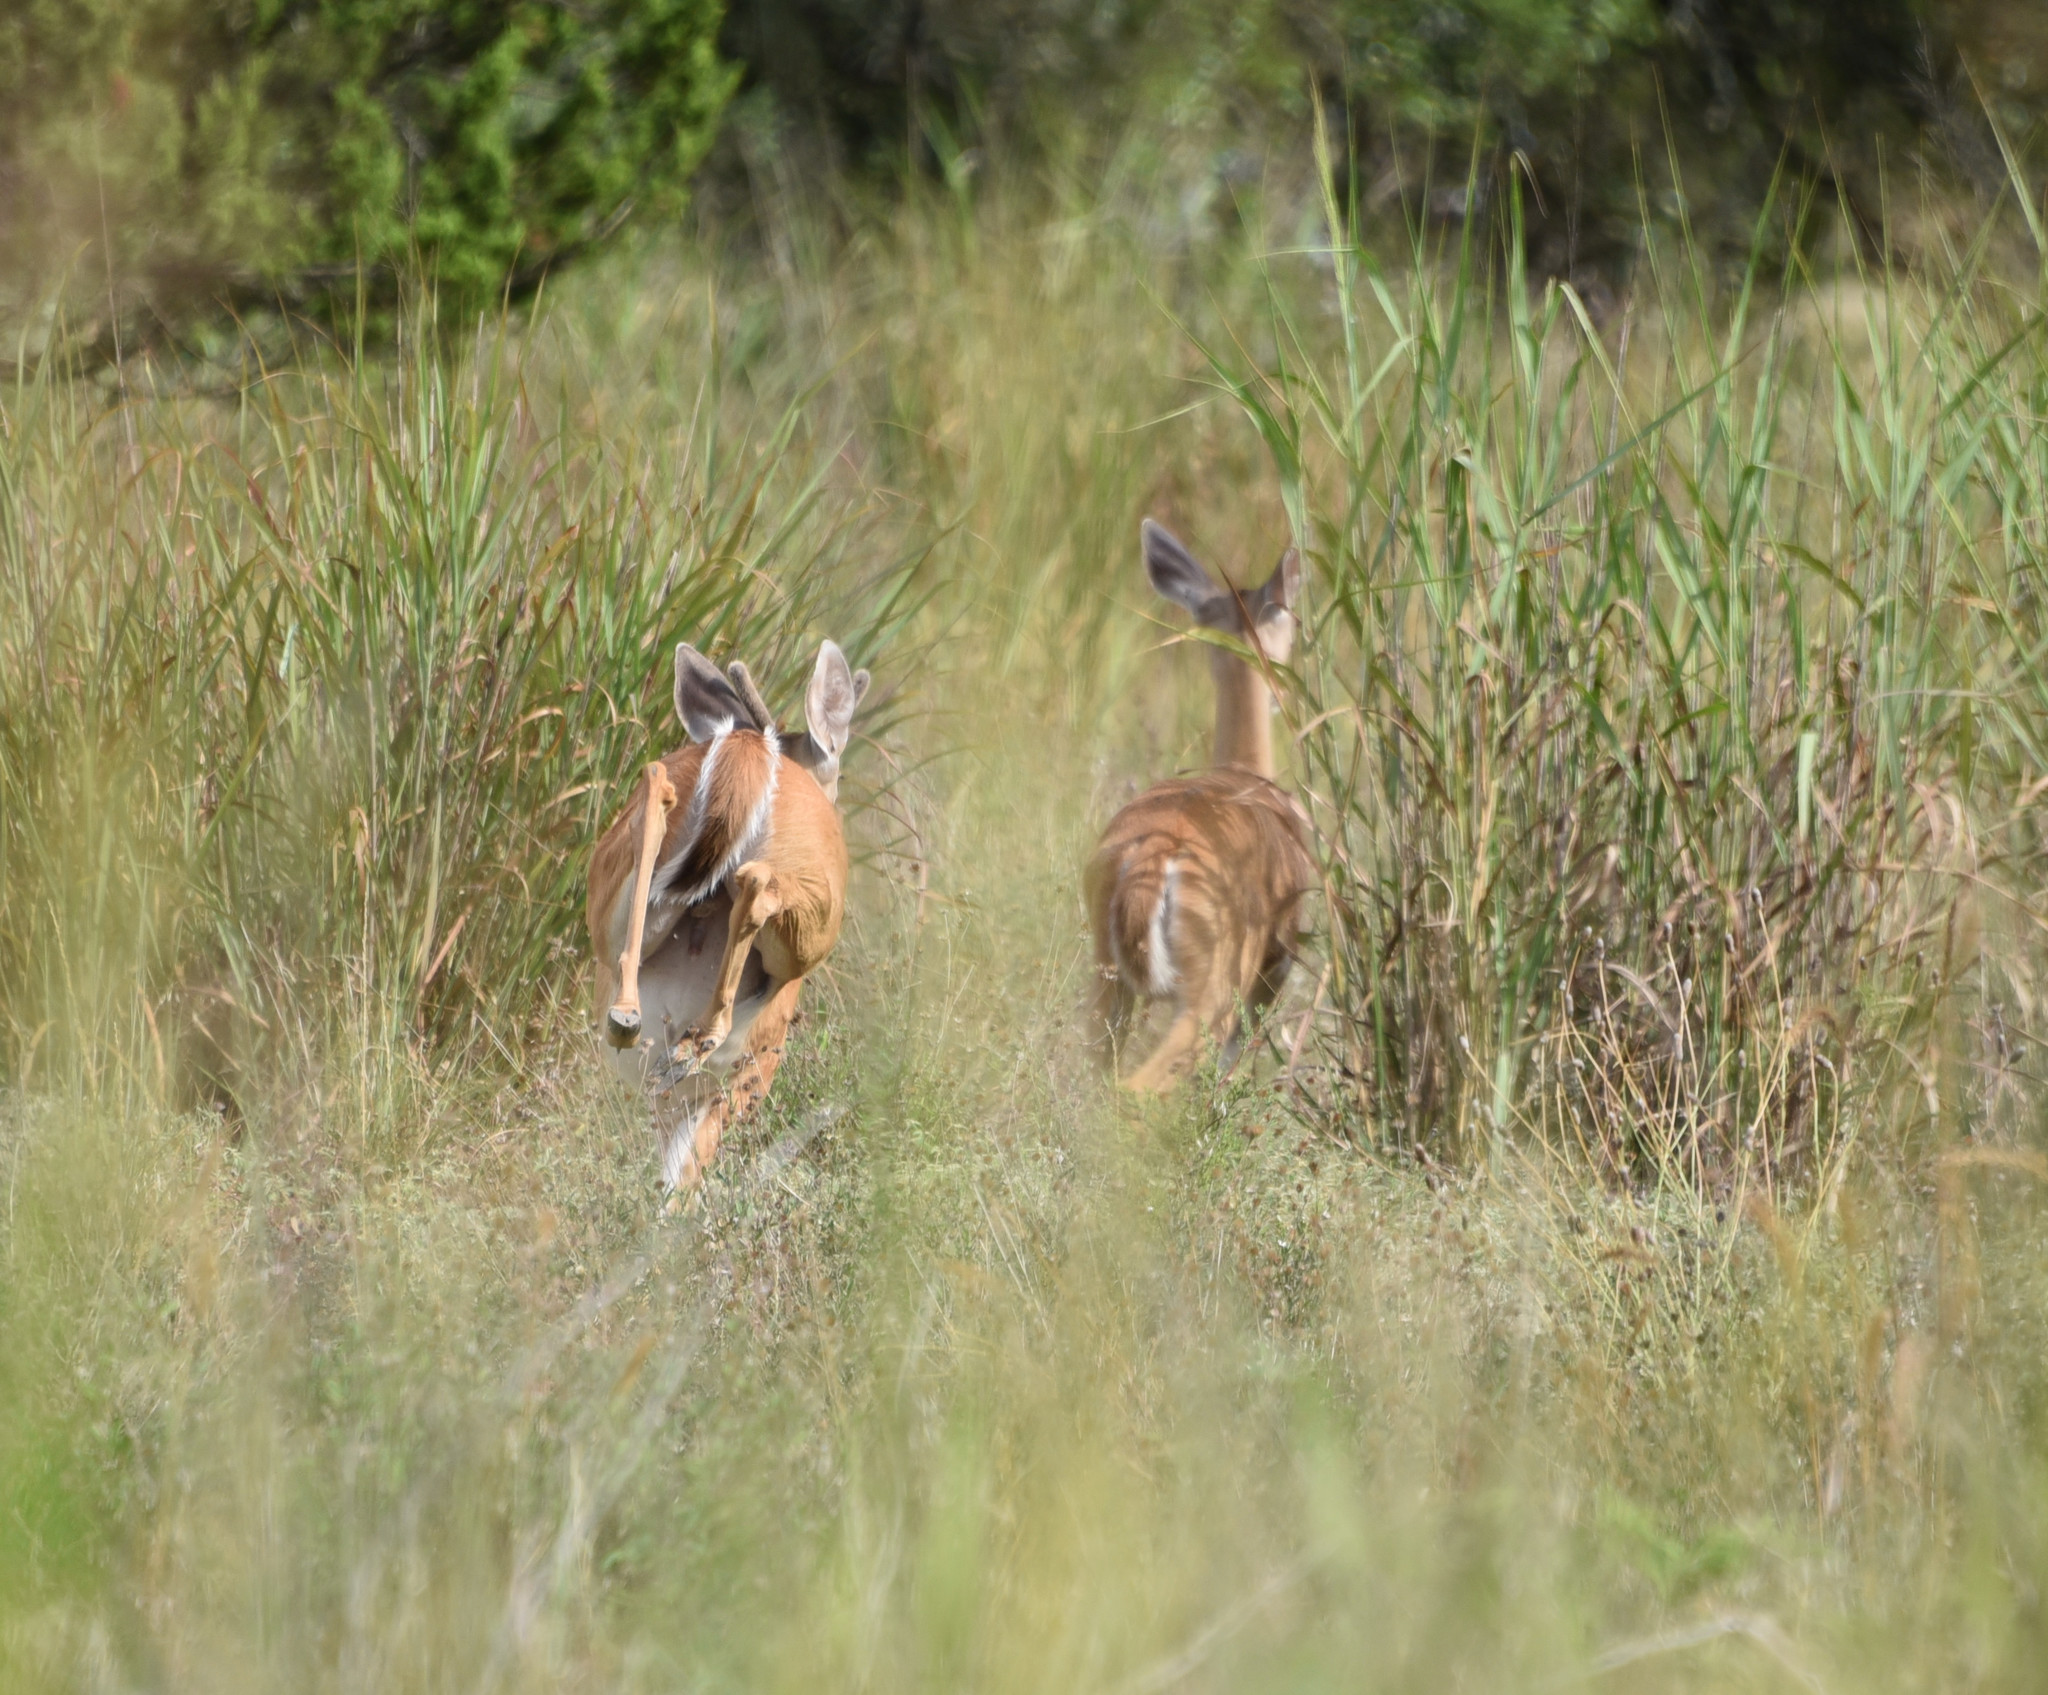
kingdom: Animalia
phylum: Chordata
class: Mammalia
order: Artiodactyla
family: Cervidae
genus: Odocoileus
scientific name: Odocoileus virginianus
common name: White-tailed deer
